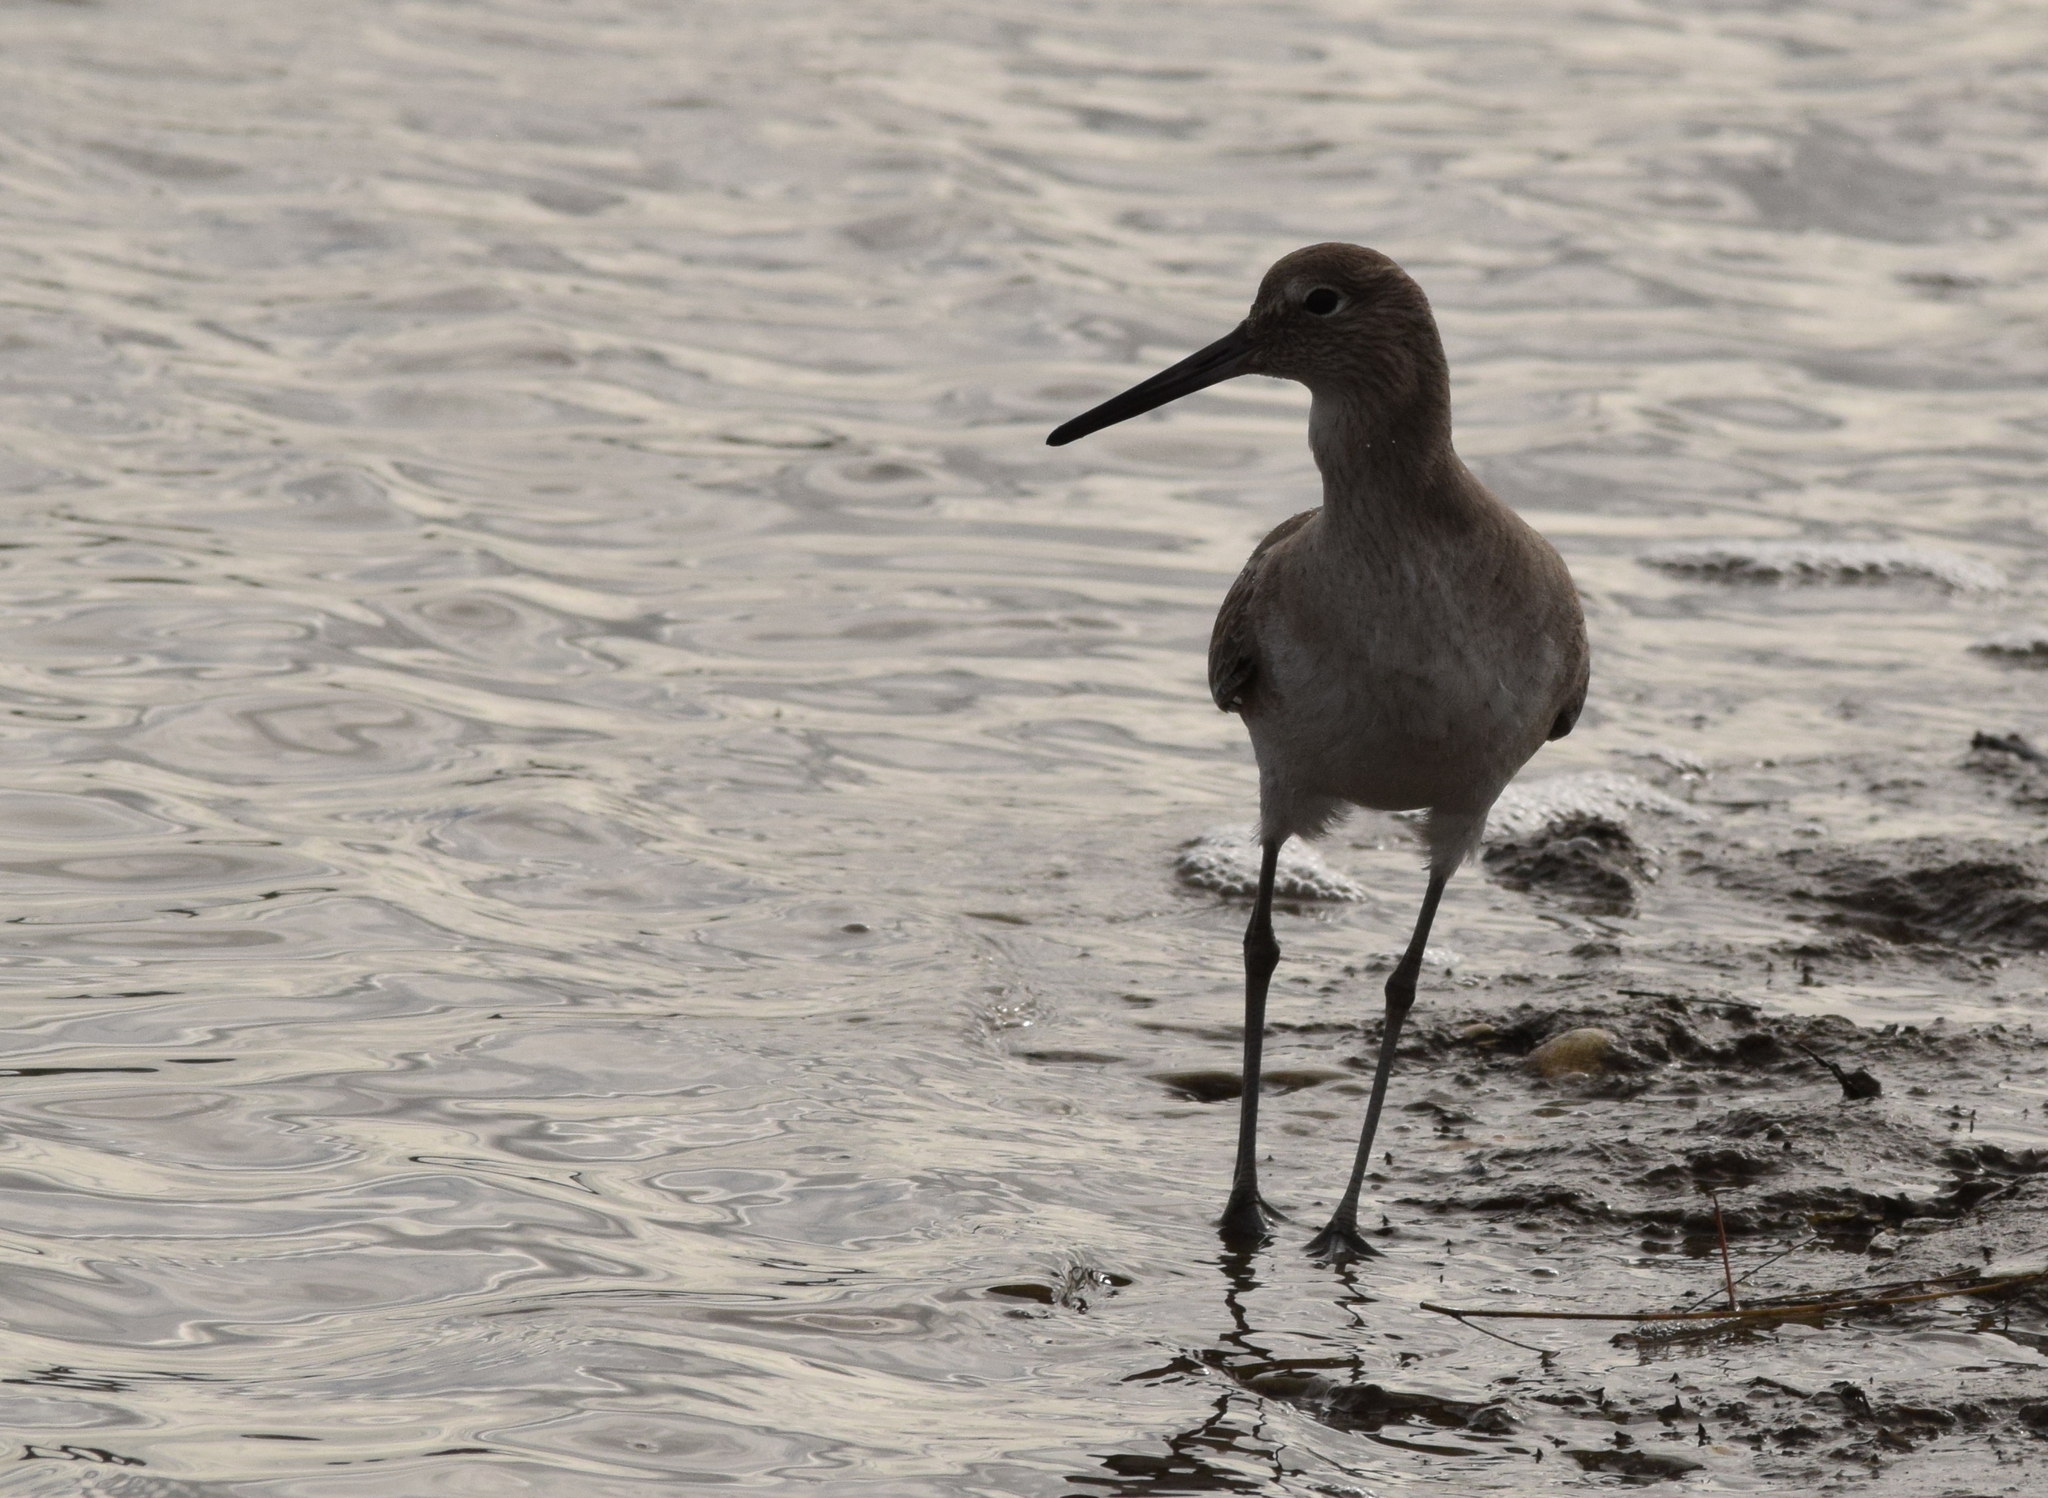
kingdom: Animalia
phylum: Chordata
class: Aves
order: Charadriiformes
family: Scolopacidae
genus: Tringa
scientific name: Tringa semipalmata
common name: Willet
